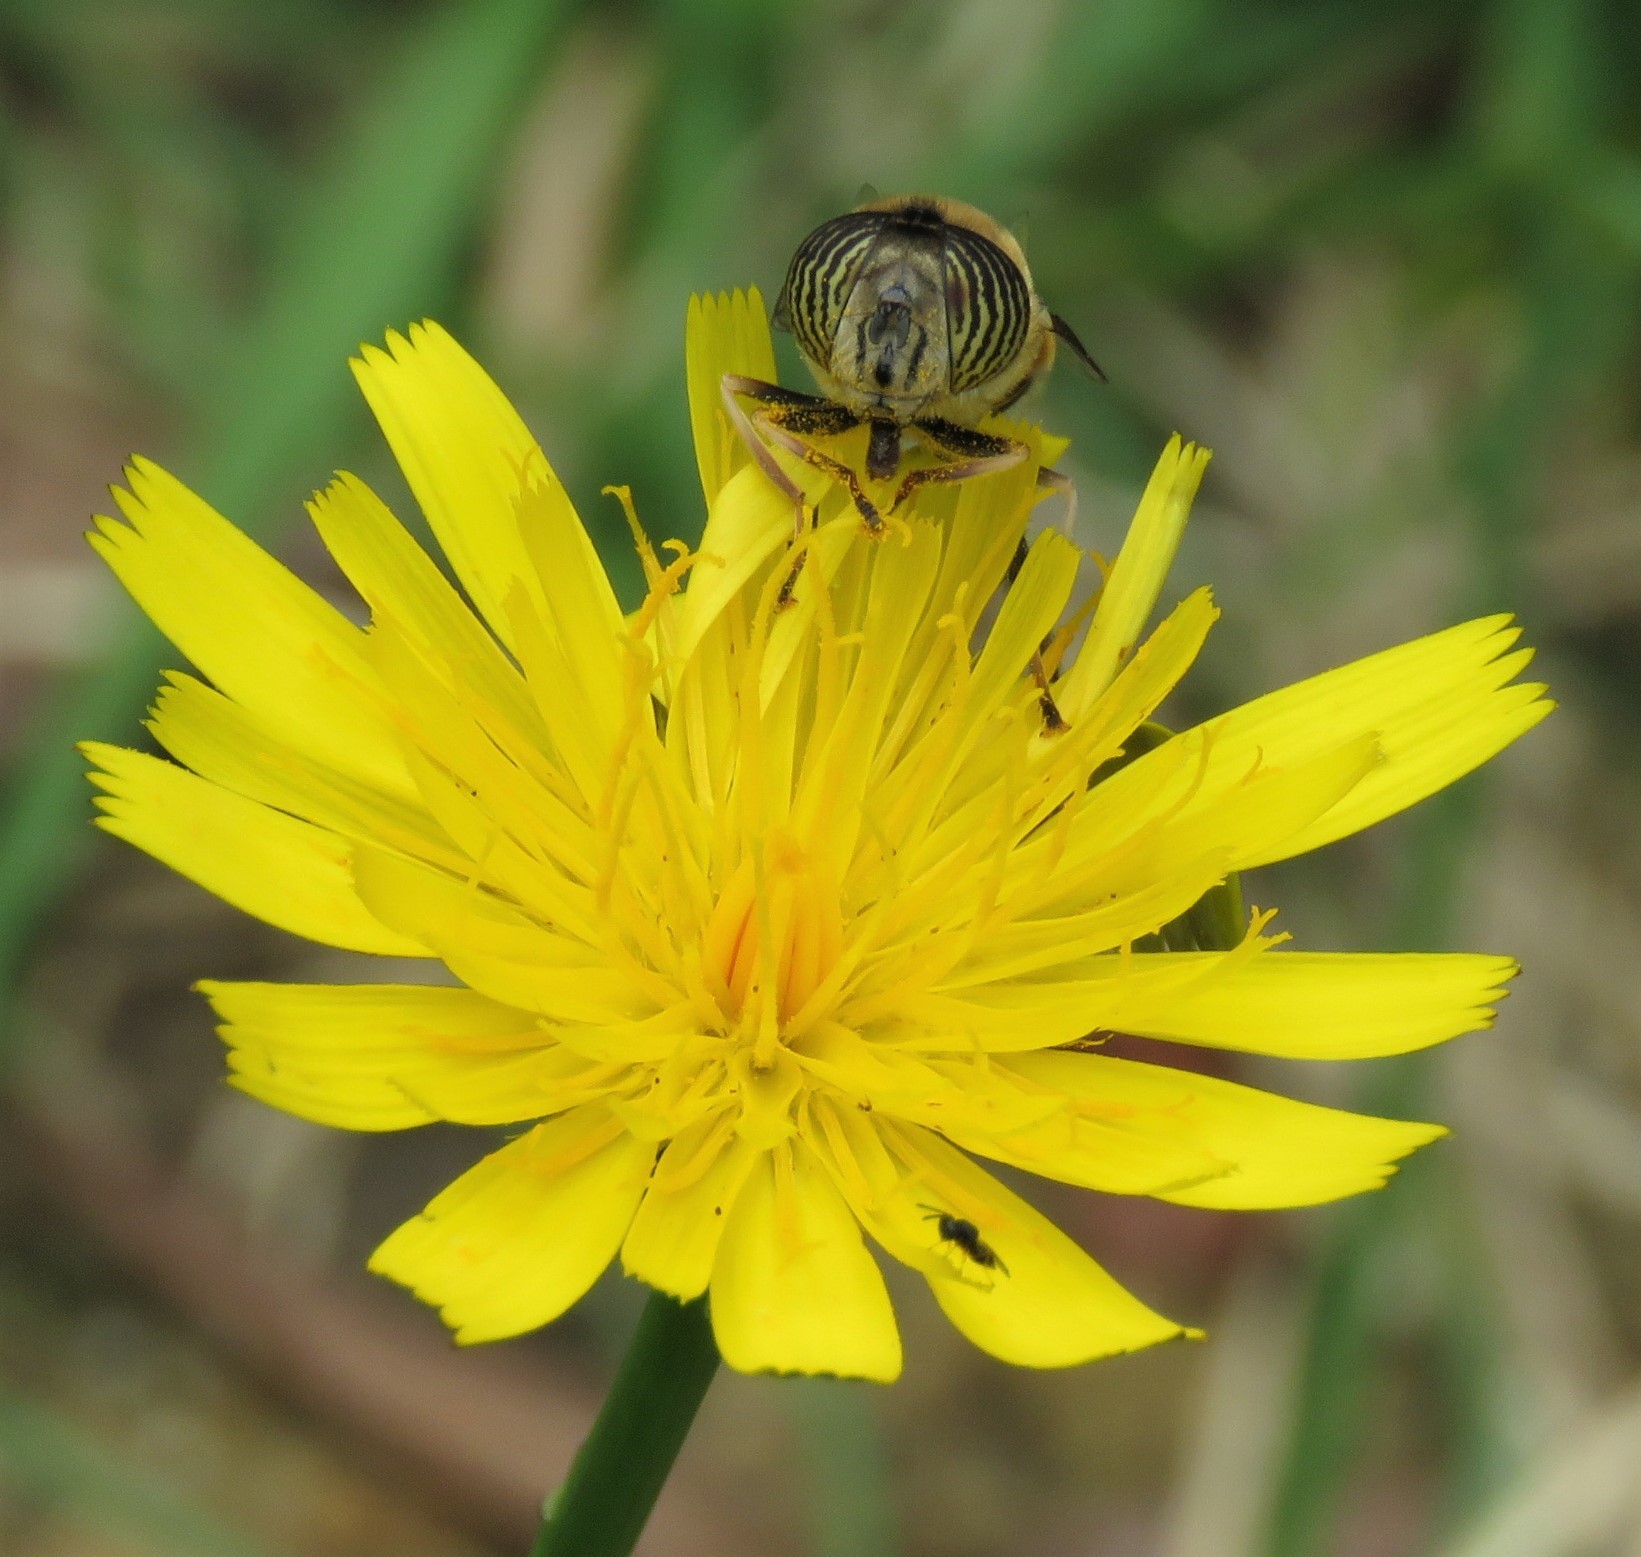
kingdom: Animalia
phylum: Arthropoda
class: Insecta
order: Diptera
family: Syrphidae
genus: Eristalinus
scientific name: Eristalinus taeniops
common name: Syrphid fly
